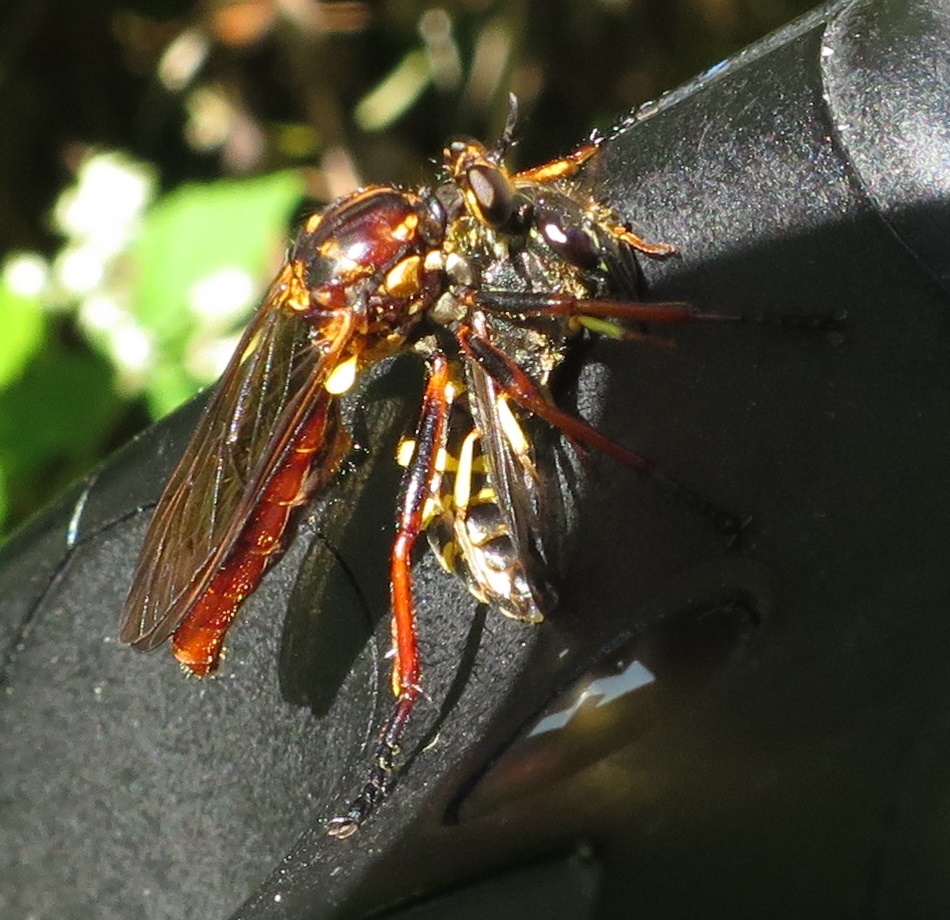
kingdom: Animalia
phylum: Arthropoda
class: Insecta
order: Diptera
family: Asilidae
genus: Saropogon
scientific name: Saropogon antipodus
